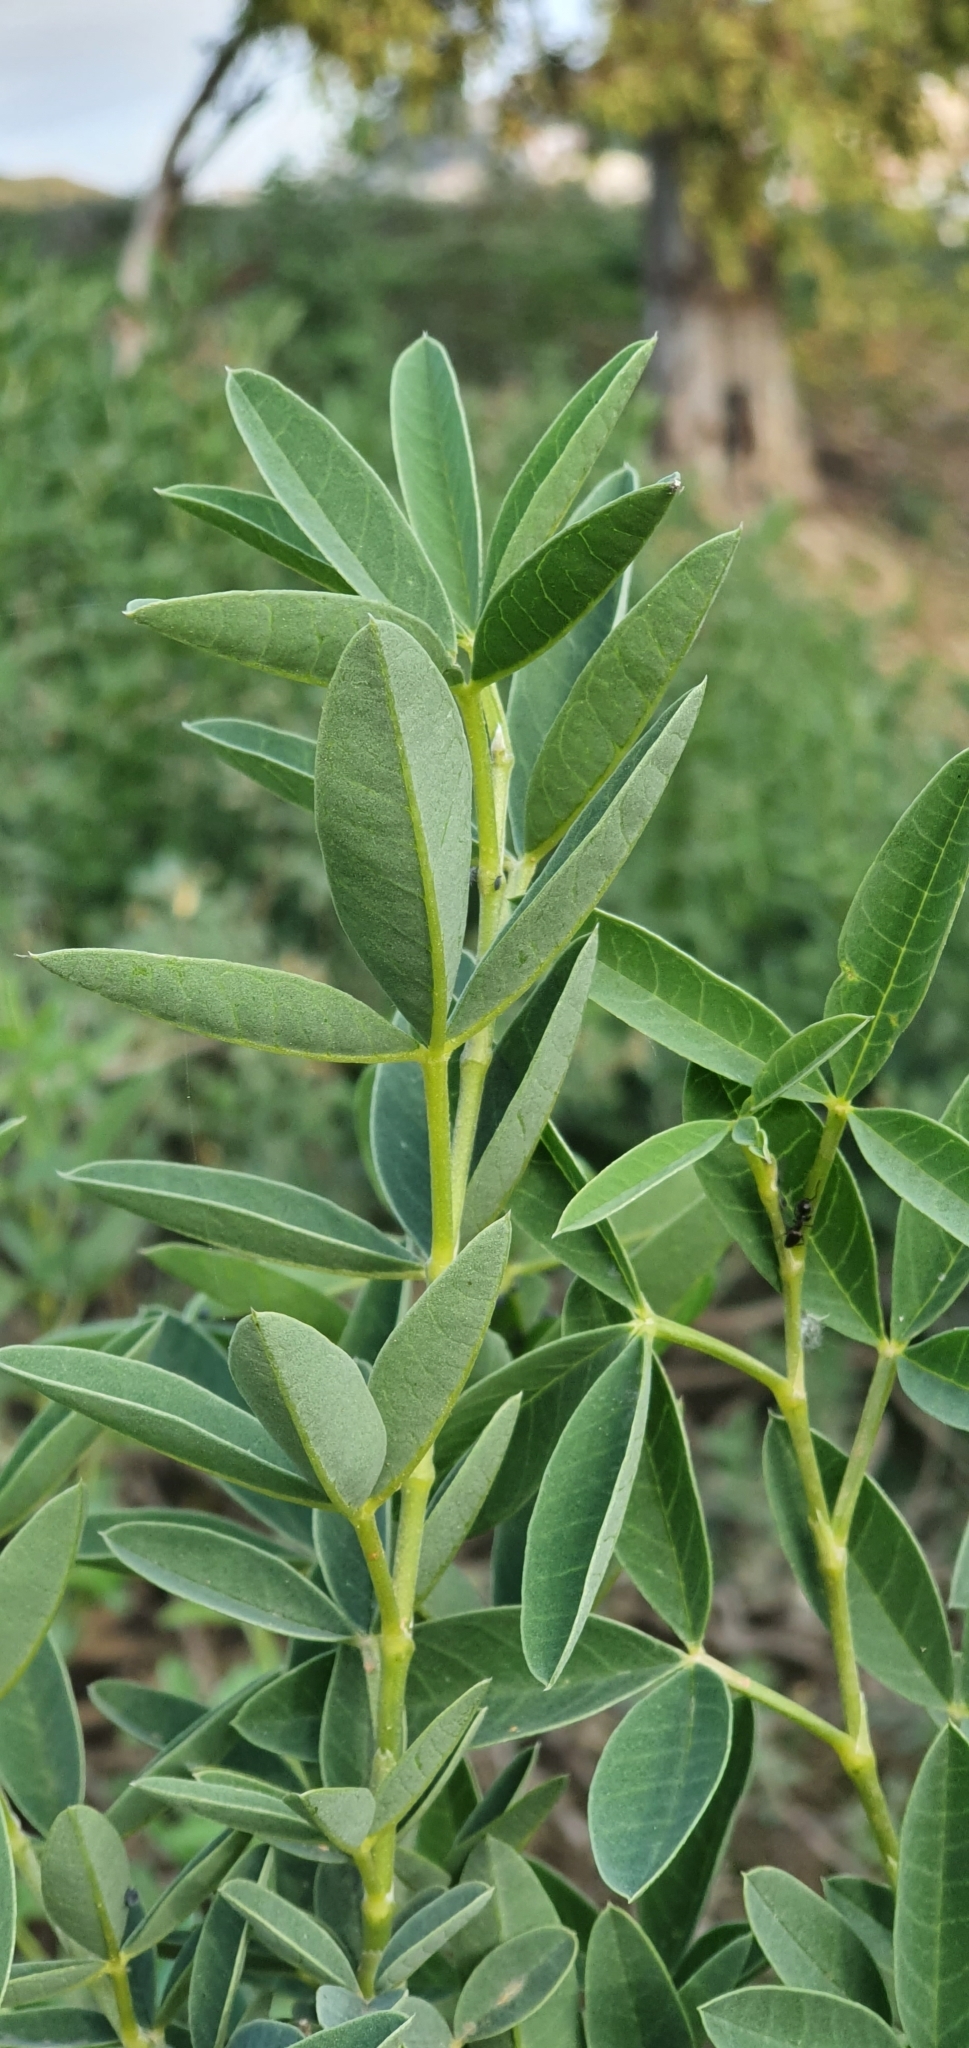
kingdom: Plantae
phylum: Tracheophyta
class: Magnoliopsida
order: Fabales
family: Fabaceae
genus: Anagyris
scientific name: Anagyris foetida
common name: Stinking bean trefoil
